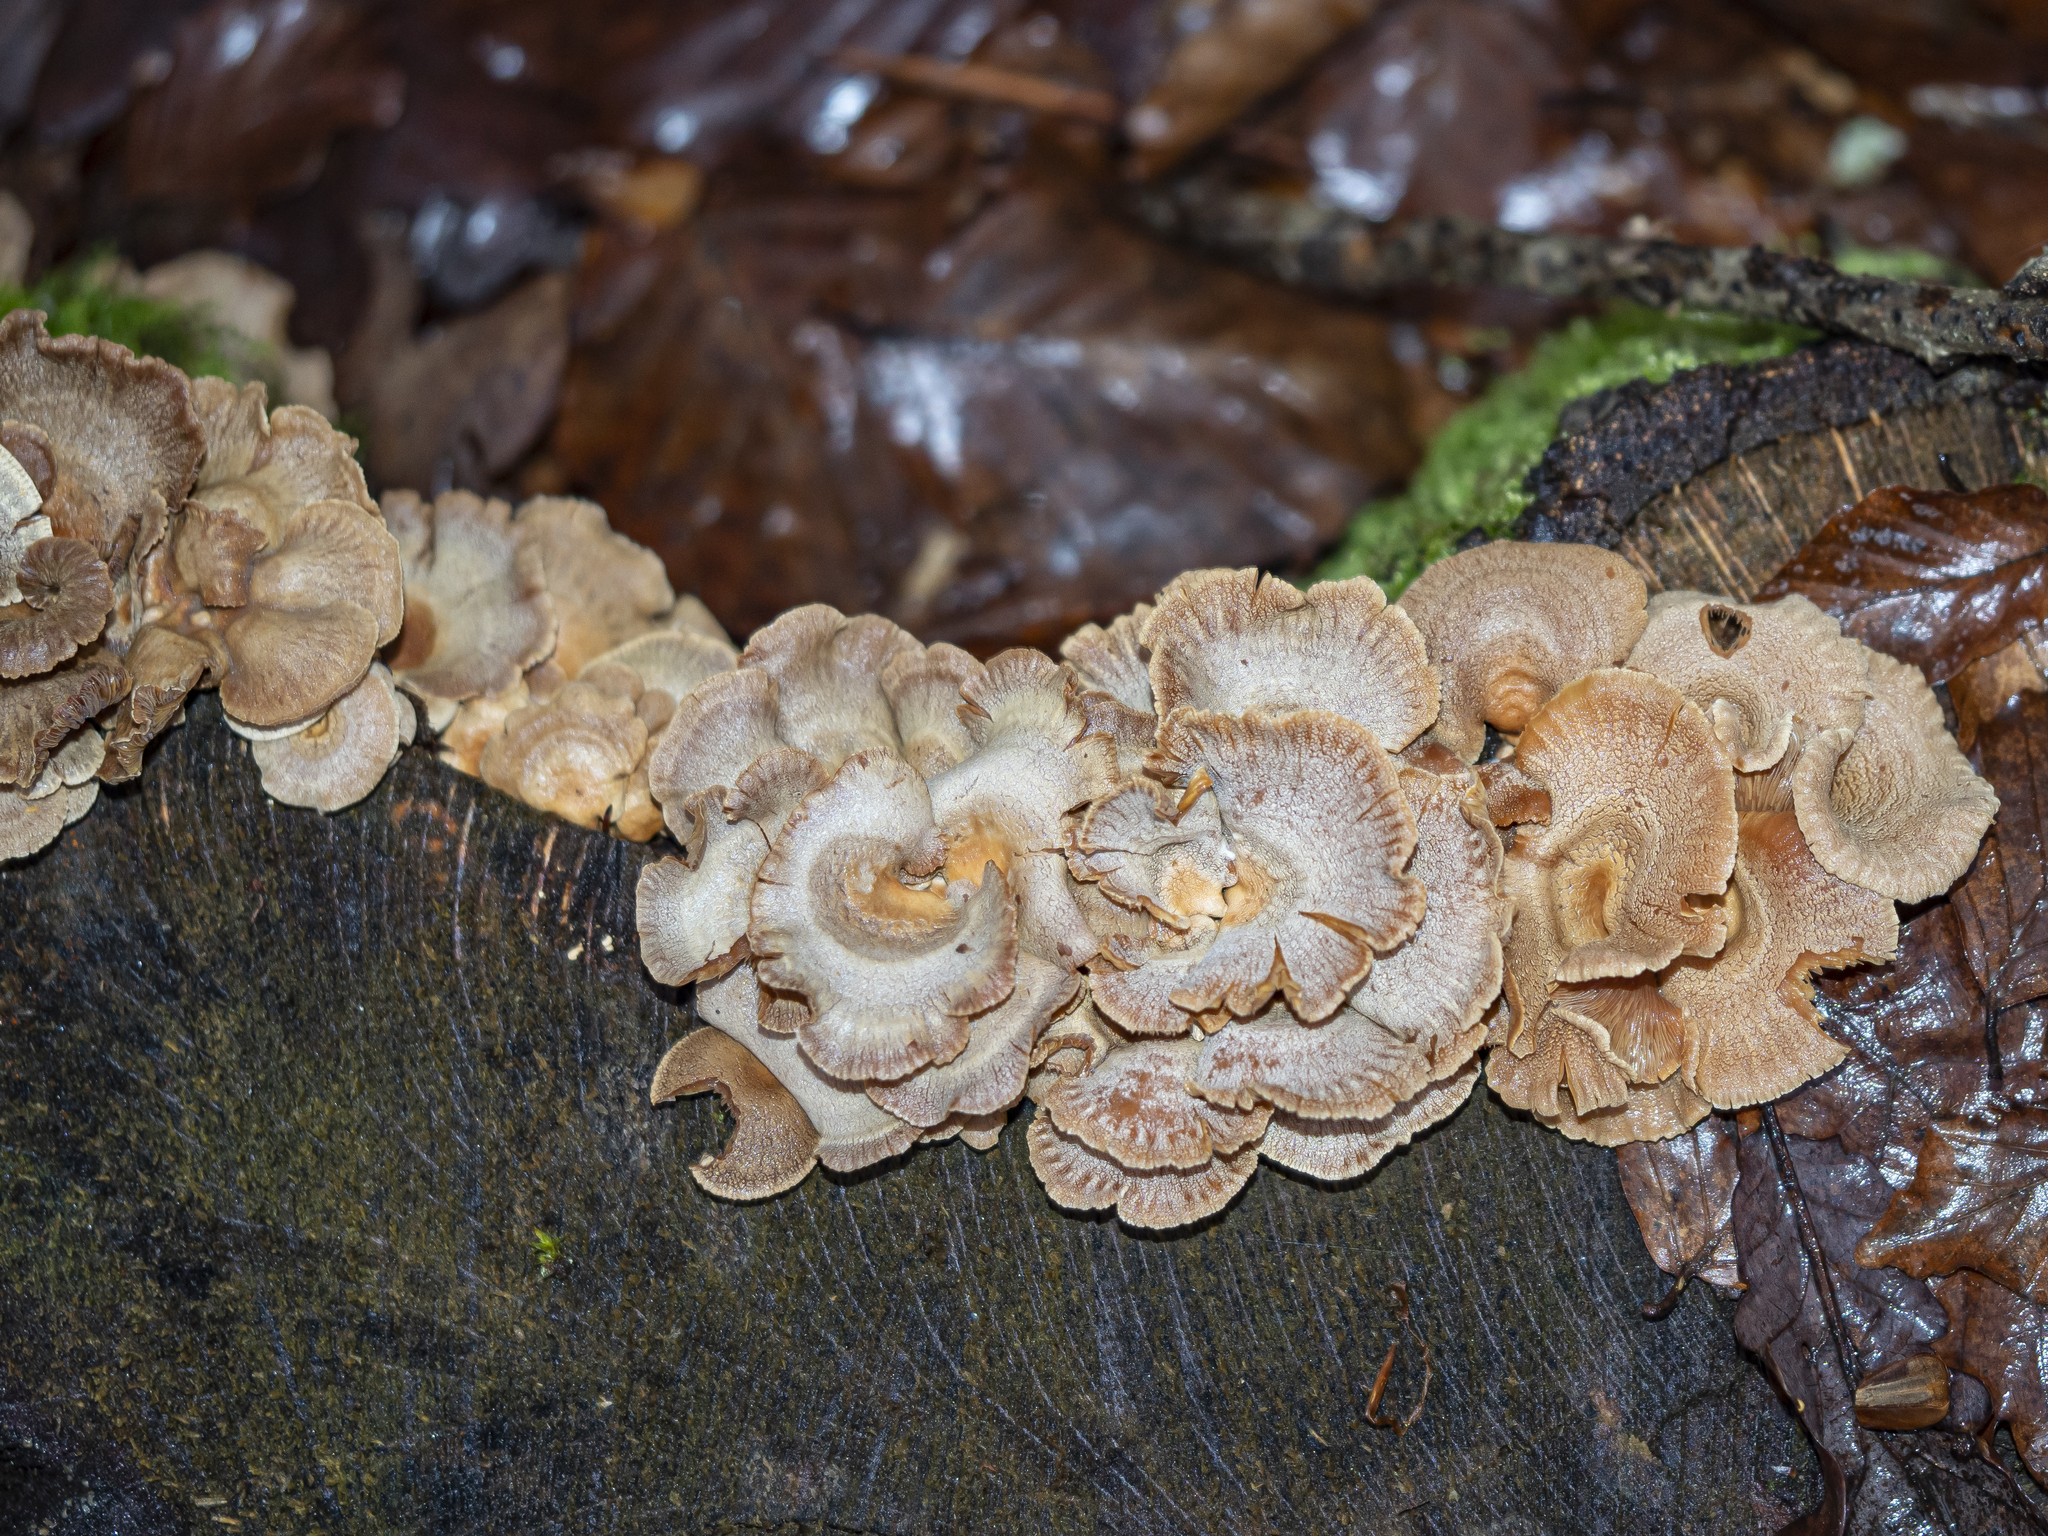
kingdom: Fungi
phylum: Basidiomycota
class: Agaricomycetes
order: Agaricales
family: Mycenaceae
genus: Panellus
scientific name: Panellus stipticus
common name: Bitter oysterling
